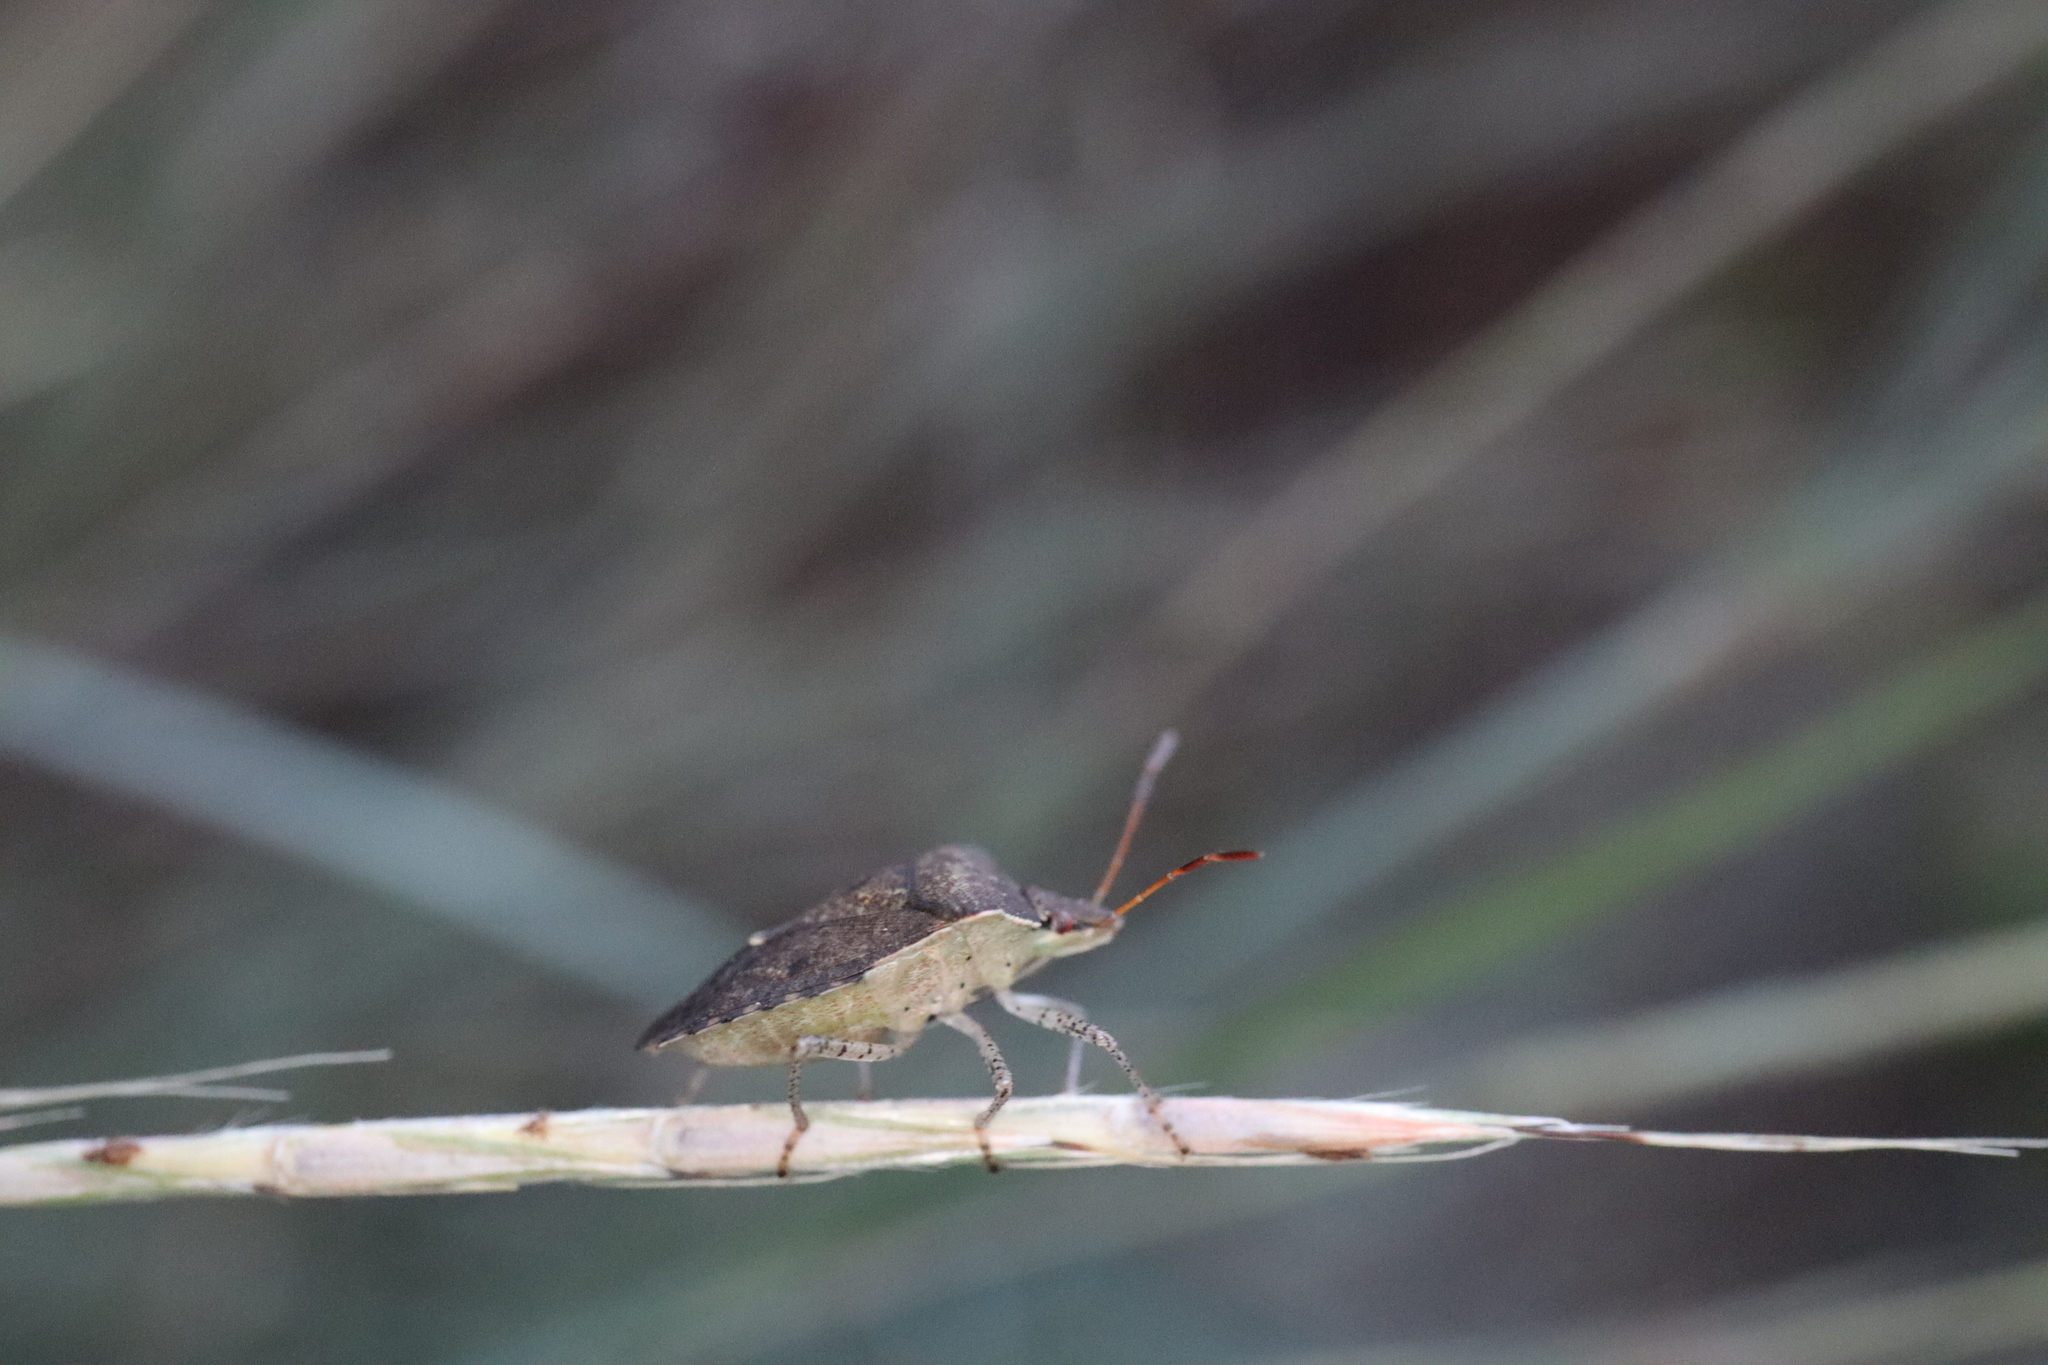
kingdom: Animalia
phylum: Arthropoda
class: Insecta
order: Hemiptera
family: Pentatomidae
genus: Euschistus
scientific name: Euschistus tristigmus
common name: Dusky stink bug
